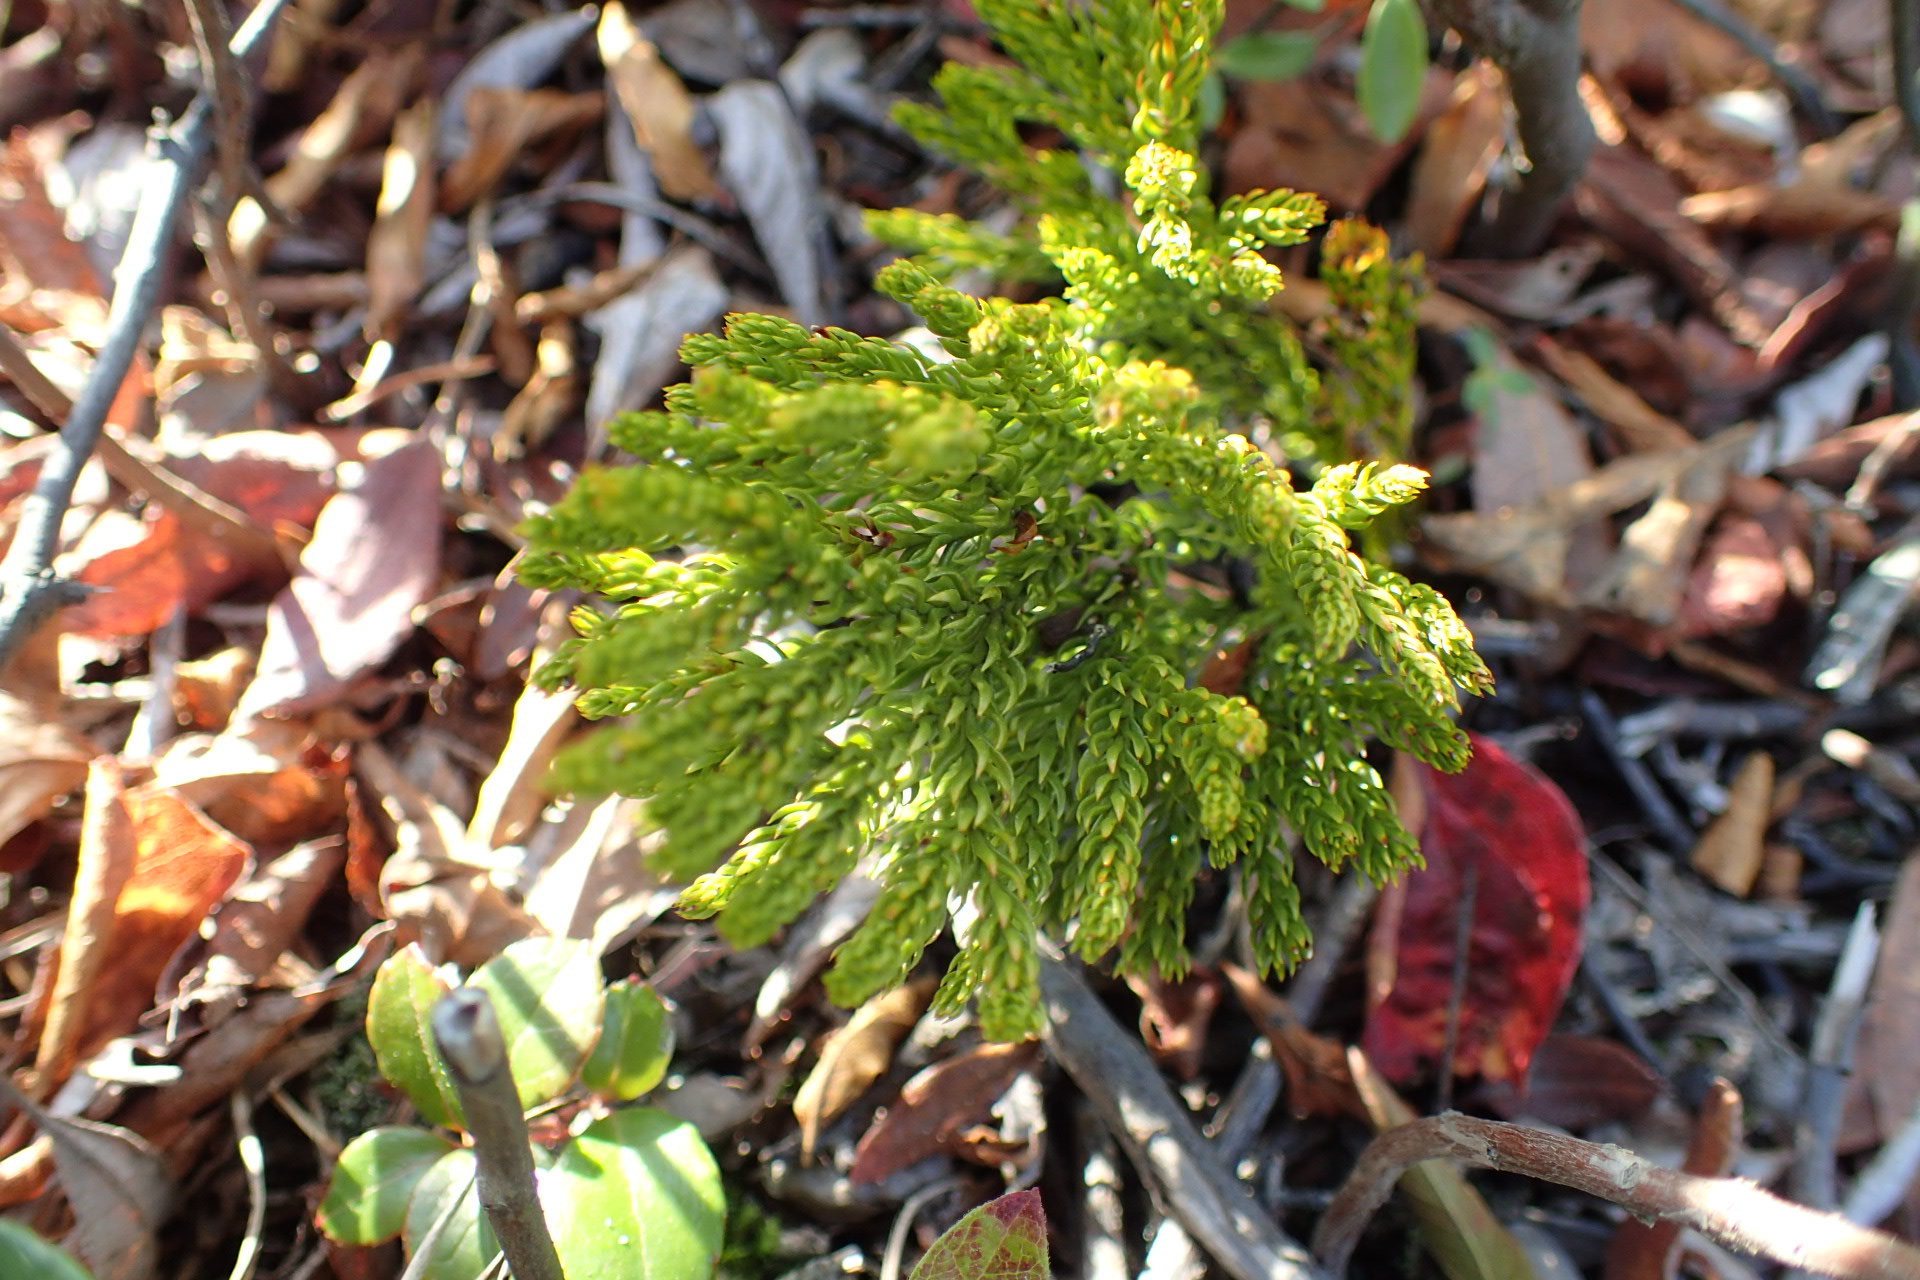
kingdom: Plantae
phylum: Tracheophyta
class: Lycopodiopsida
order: Lycopodiales
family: Lycopodiaceae
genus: Dendrolycopodium
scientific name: Dendrolycopodium hickeyi
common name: Hickey's clubmoss
